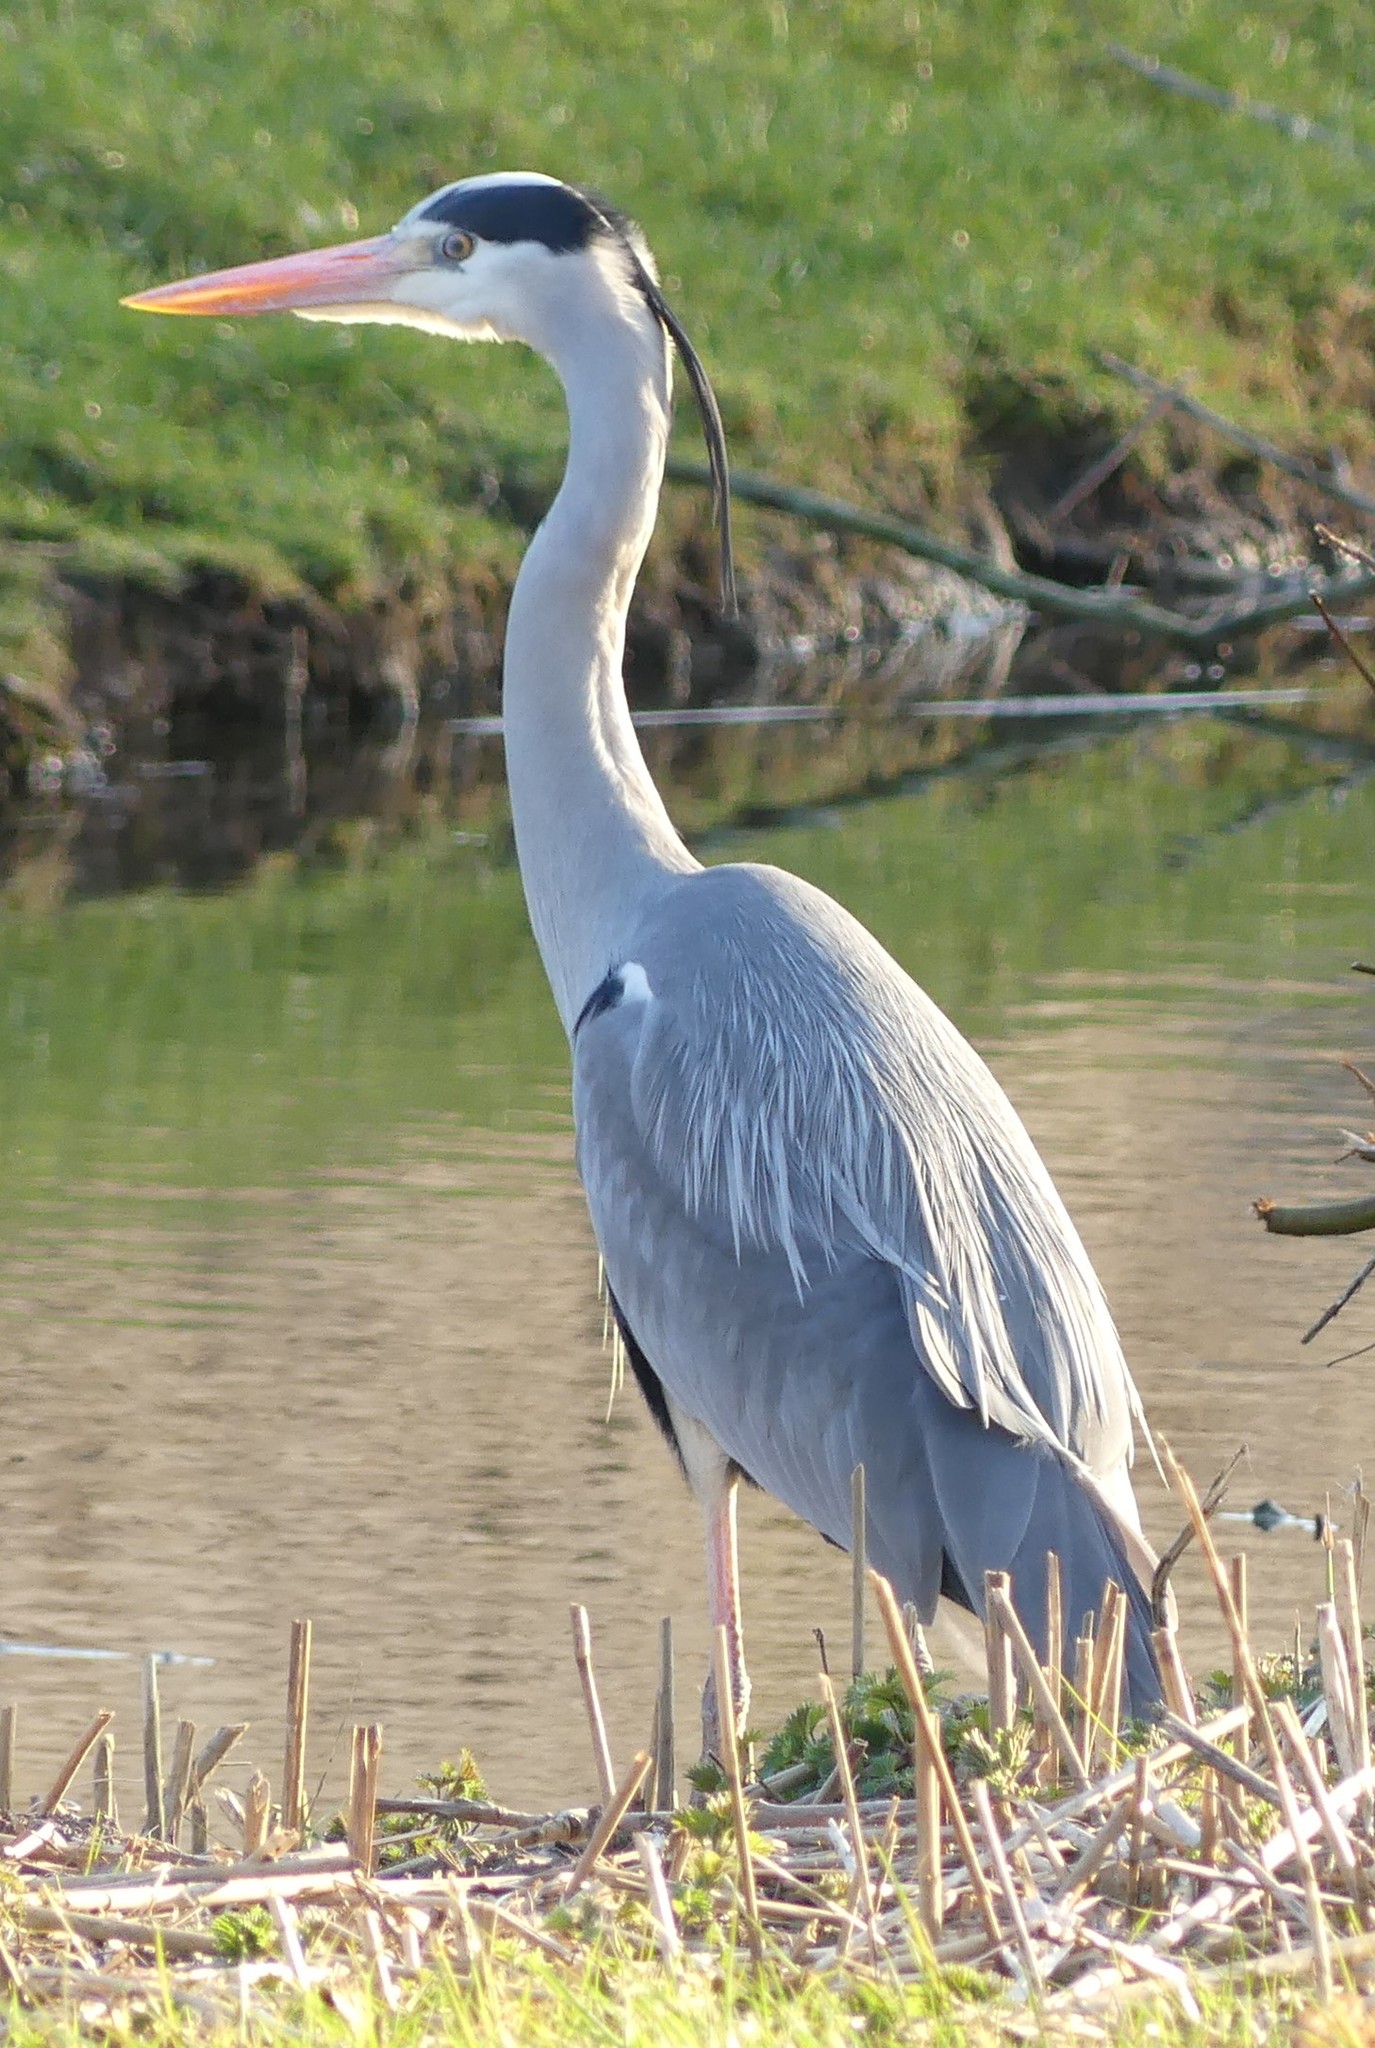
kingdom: Animalia
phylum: Chordata
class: Aves
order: Pelecaniformes
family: Ardeidae
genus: Ardea
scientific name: Ardea cinerea
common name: Grey heron
